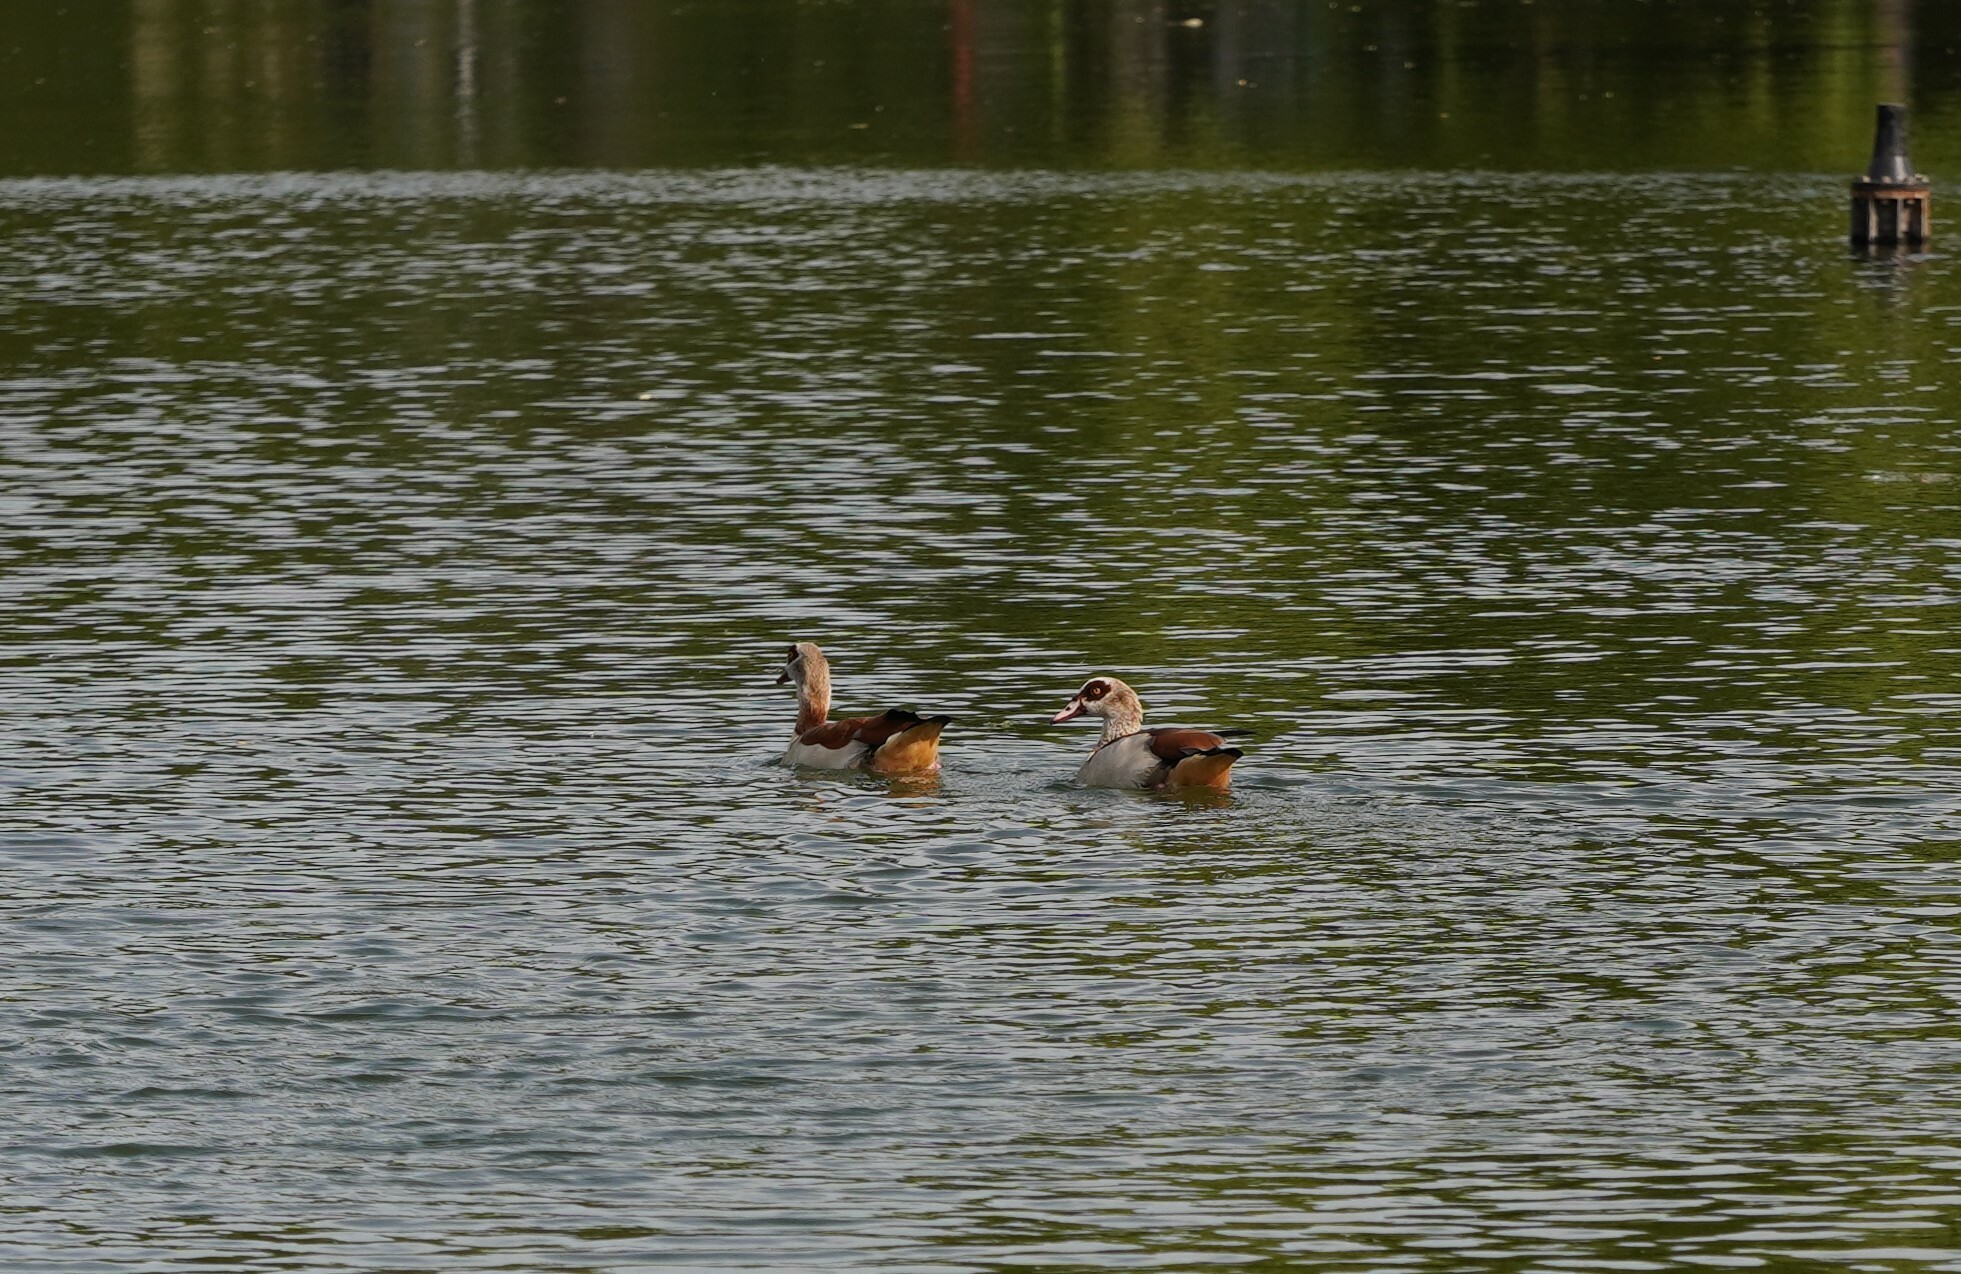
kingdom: Animalia
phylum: Chordata
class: Aves
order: Anseriformes
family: Anatidae
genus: Alopochen
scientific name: Alopochen aegyptiaca
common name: Egyptian goose
